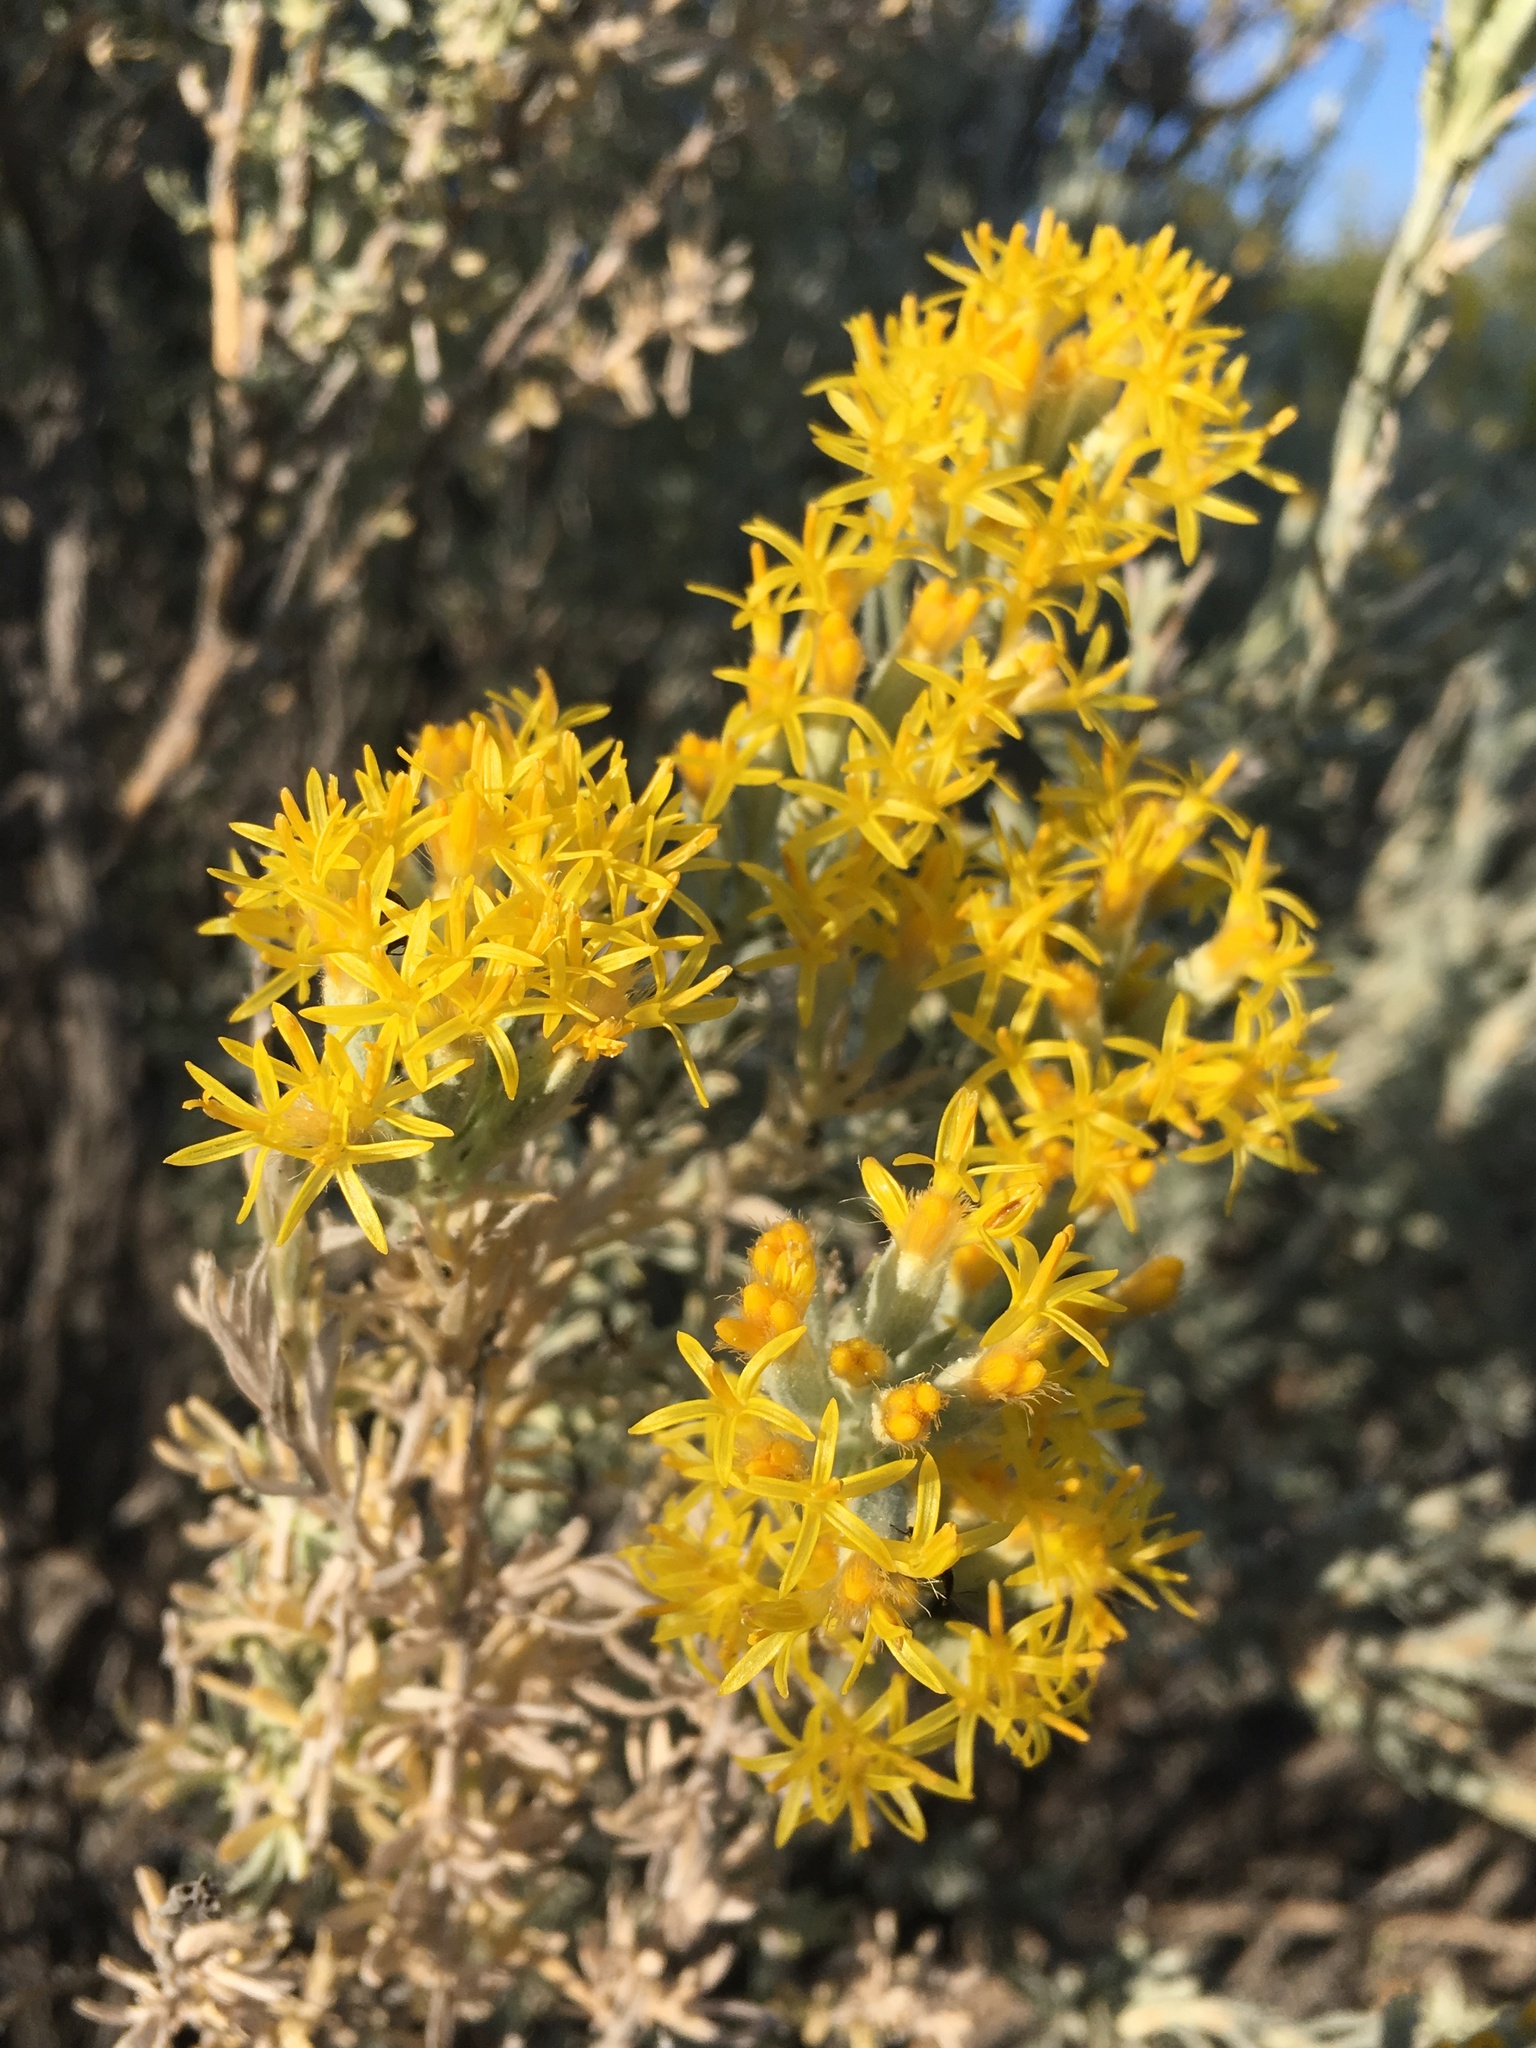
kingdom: Plantae
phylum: Tracheophyta
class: Magnoliopsida
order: Asterales
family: Asteraceae
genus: Tetradymia
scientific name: Tetradymia canescens
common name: Spineless horsebrush
